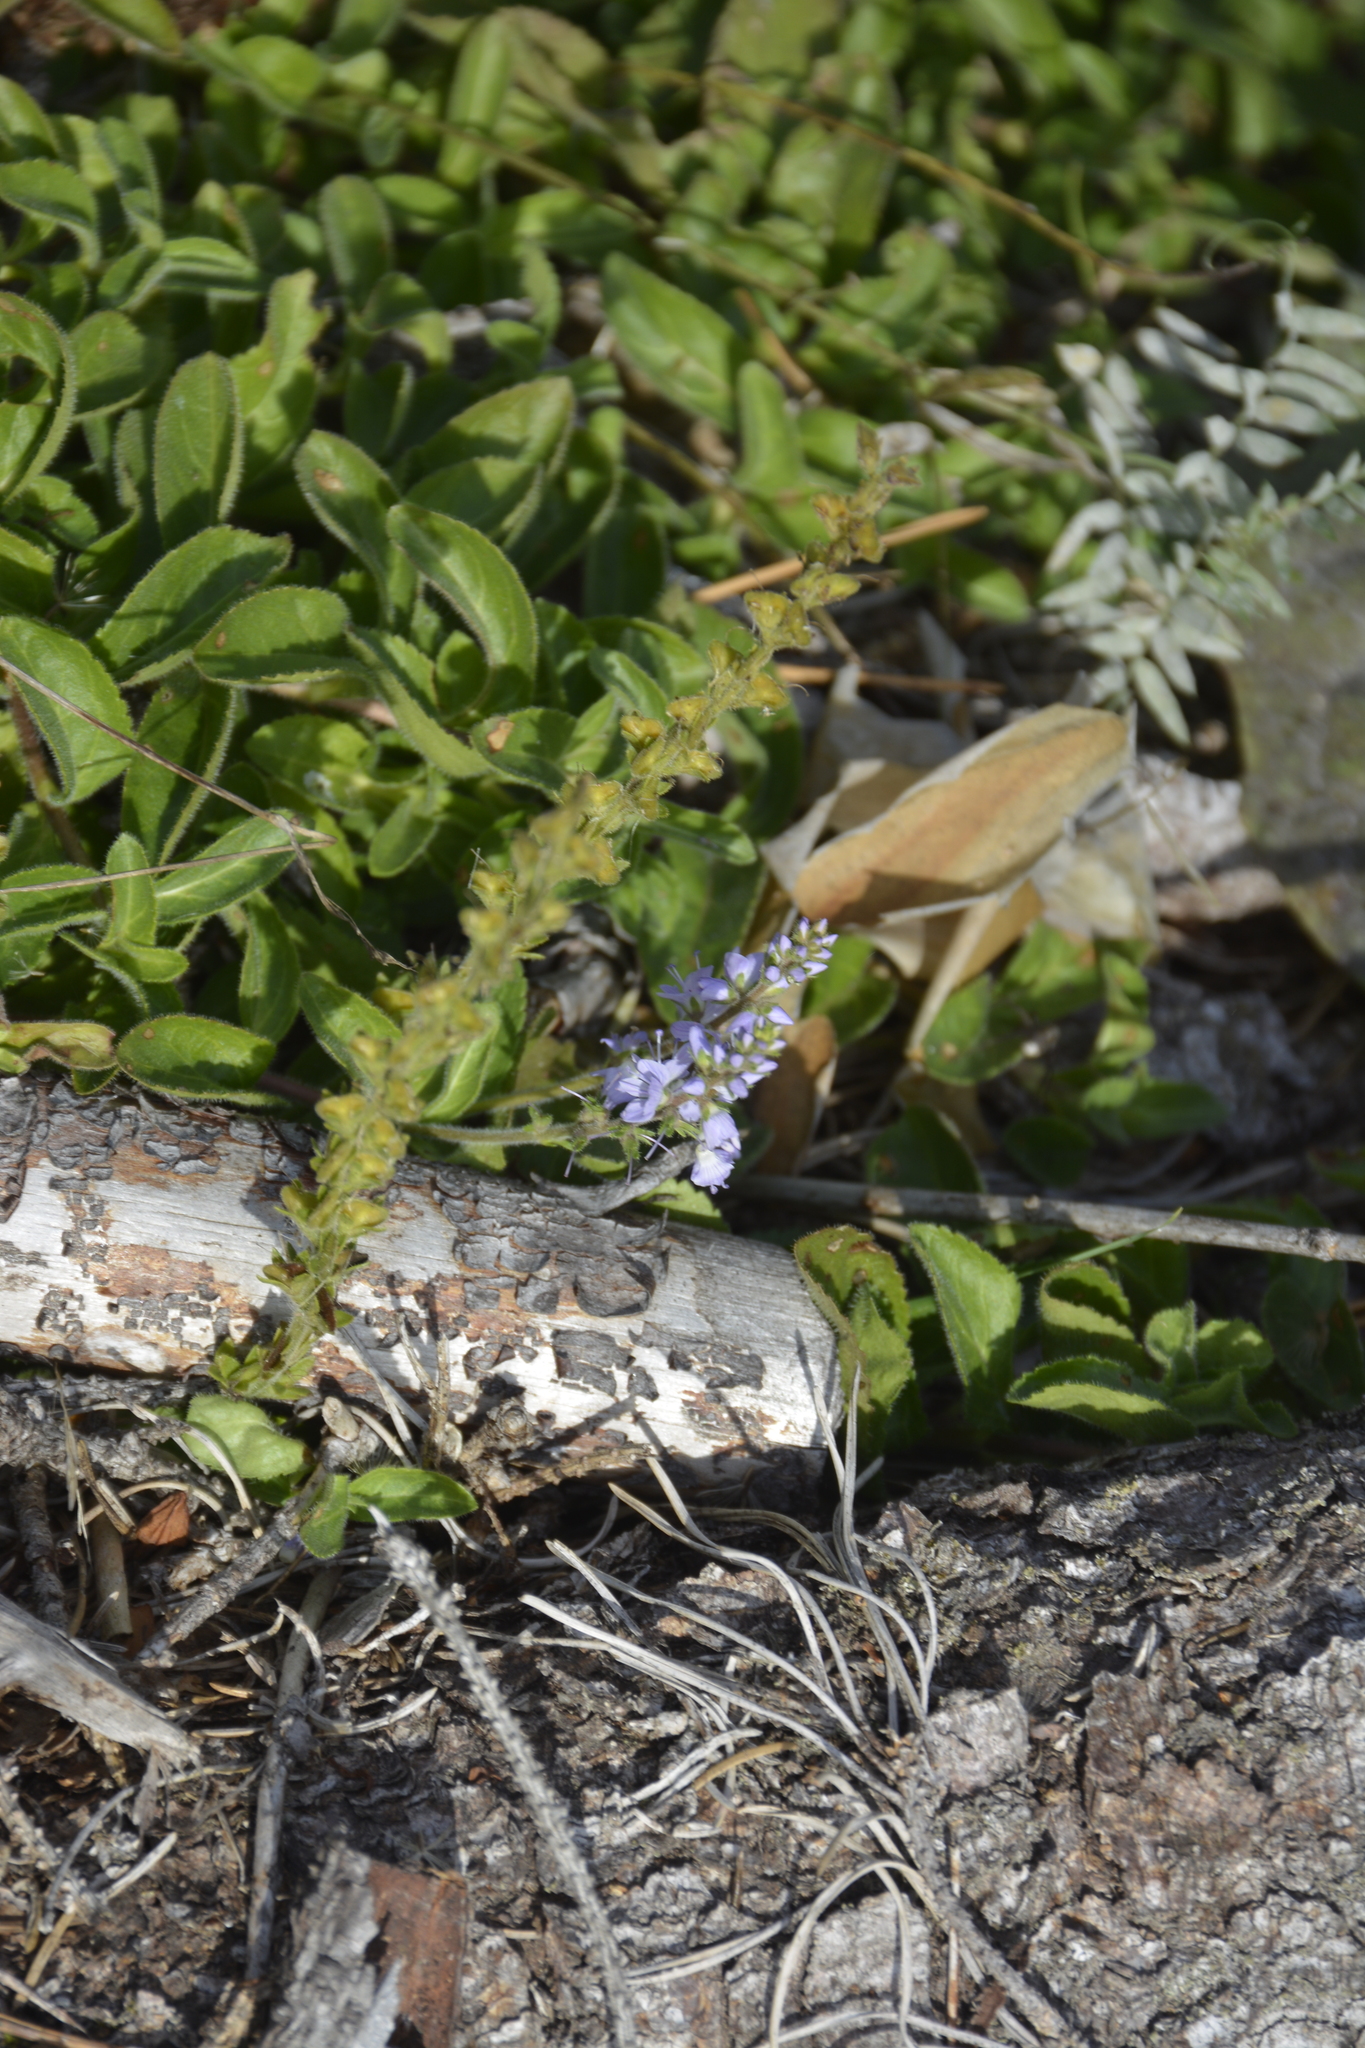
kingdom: Plantae
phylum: Tracheophyta
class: Magnoliopsida
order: Lamiales
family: Plantaginaceae
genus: Veronica
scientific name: Veronica officinalis
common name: Common speedwell
